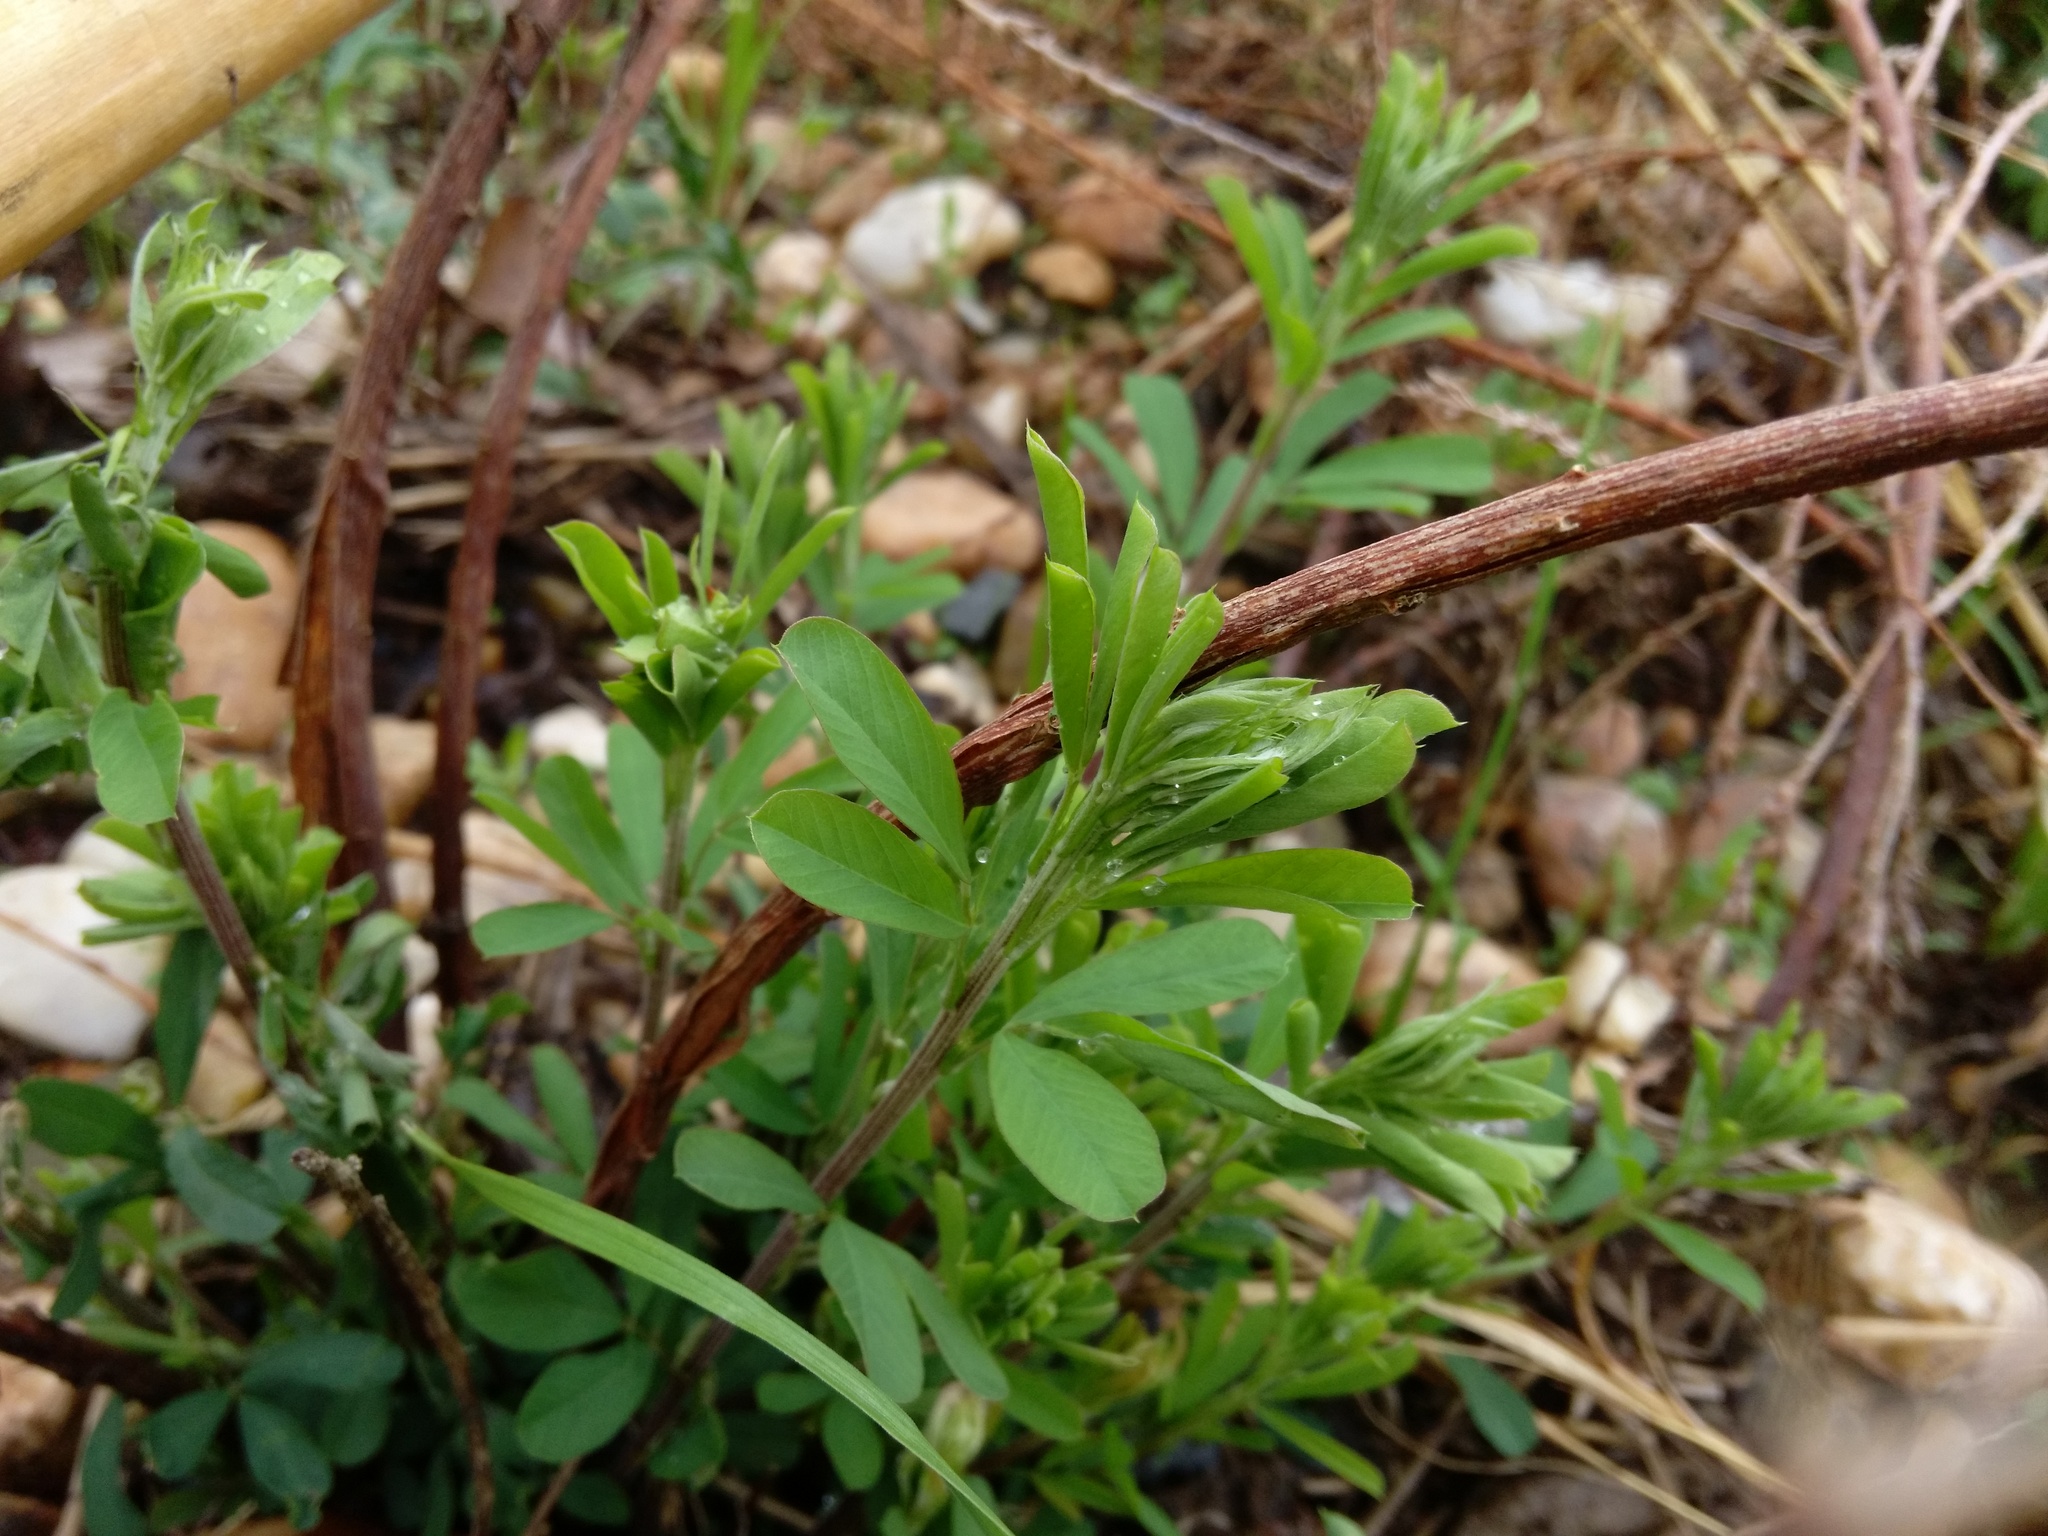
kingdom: Plantae
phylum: Tracheophyta
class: Magnoliopsida
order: Fabales
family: Fabaceae
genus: Lespedeza
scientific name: Lespedeza cuneata
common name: Chinese bush-clover
